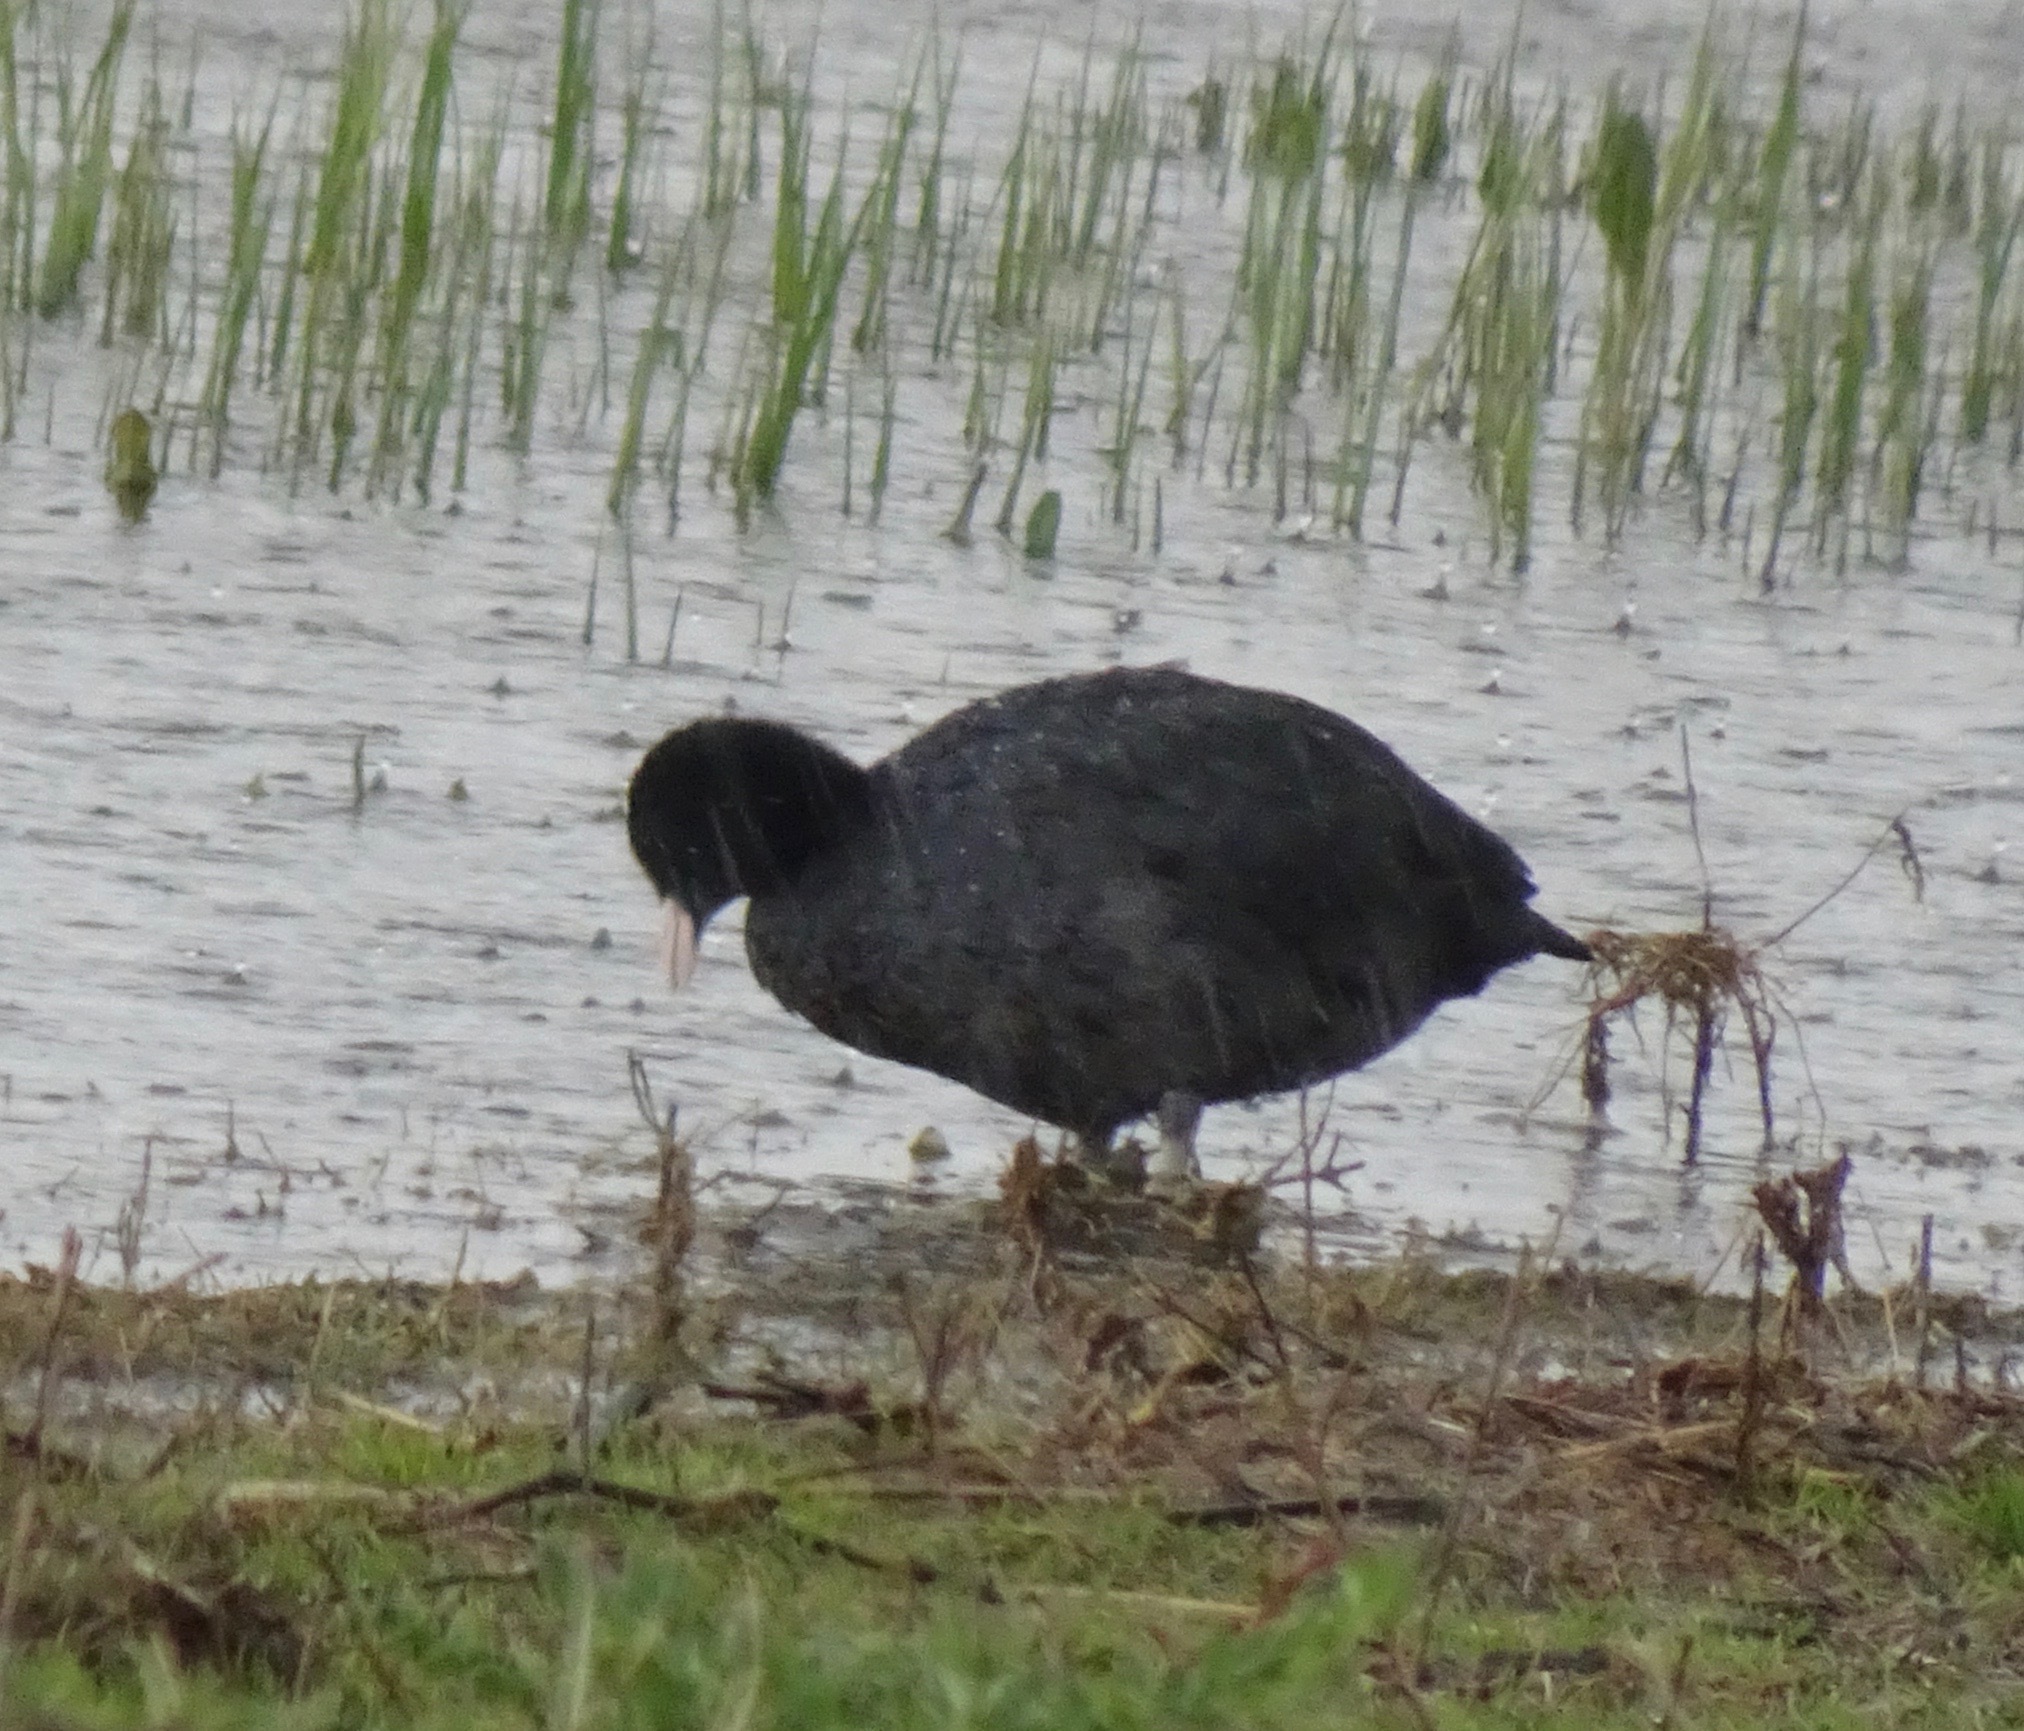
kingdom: Animalia
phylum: Chordata
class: Aves
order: Gruiformes
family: Rallidae
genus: Fulica
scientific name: Fulica atra
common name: Eurasian coot
